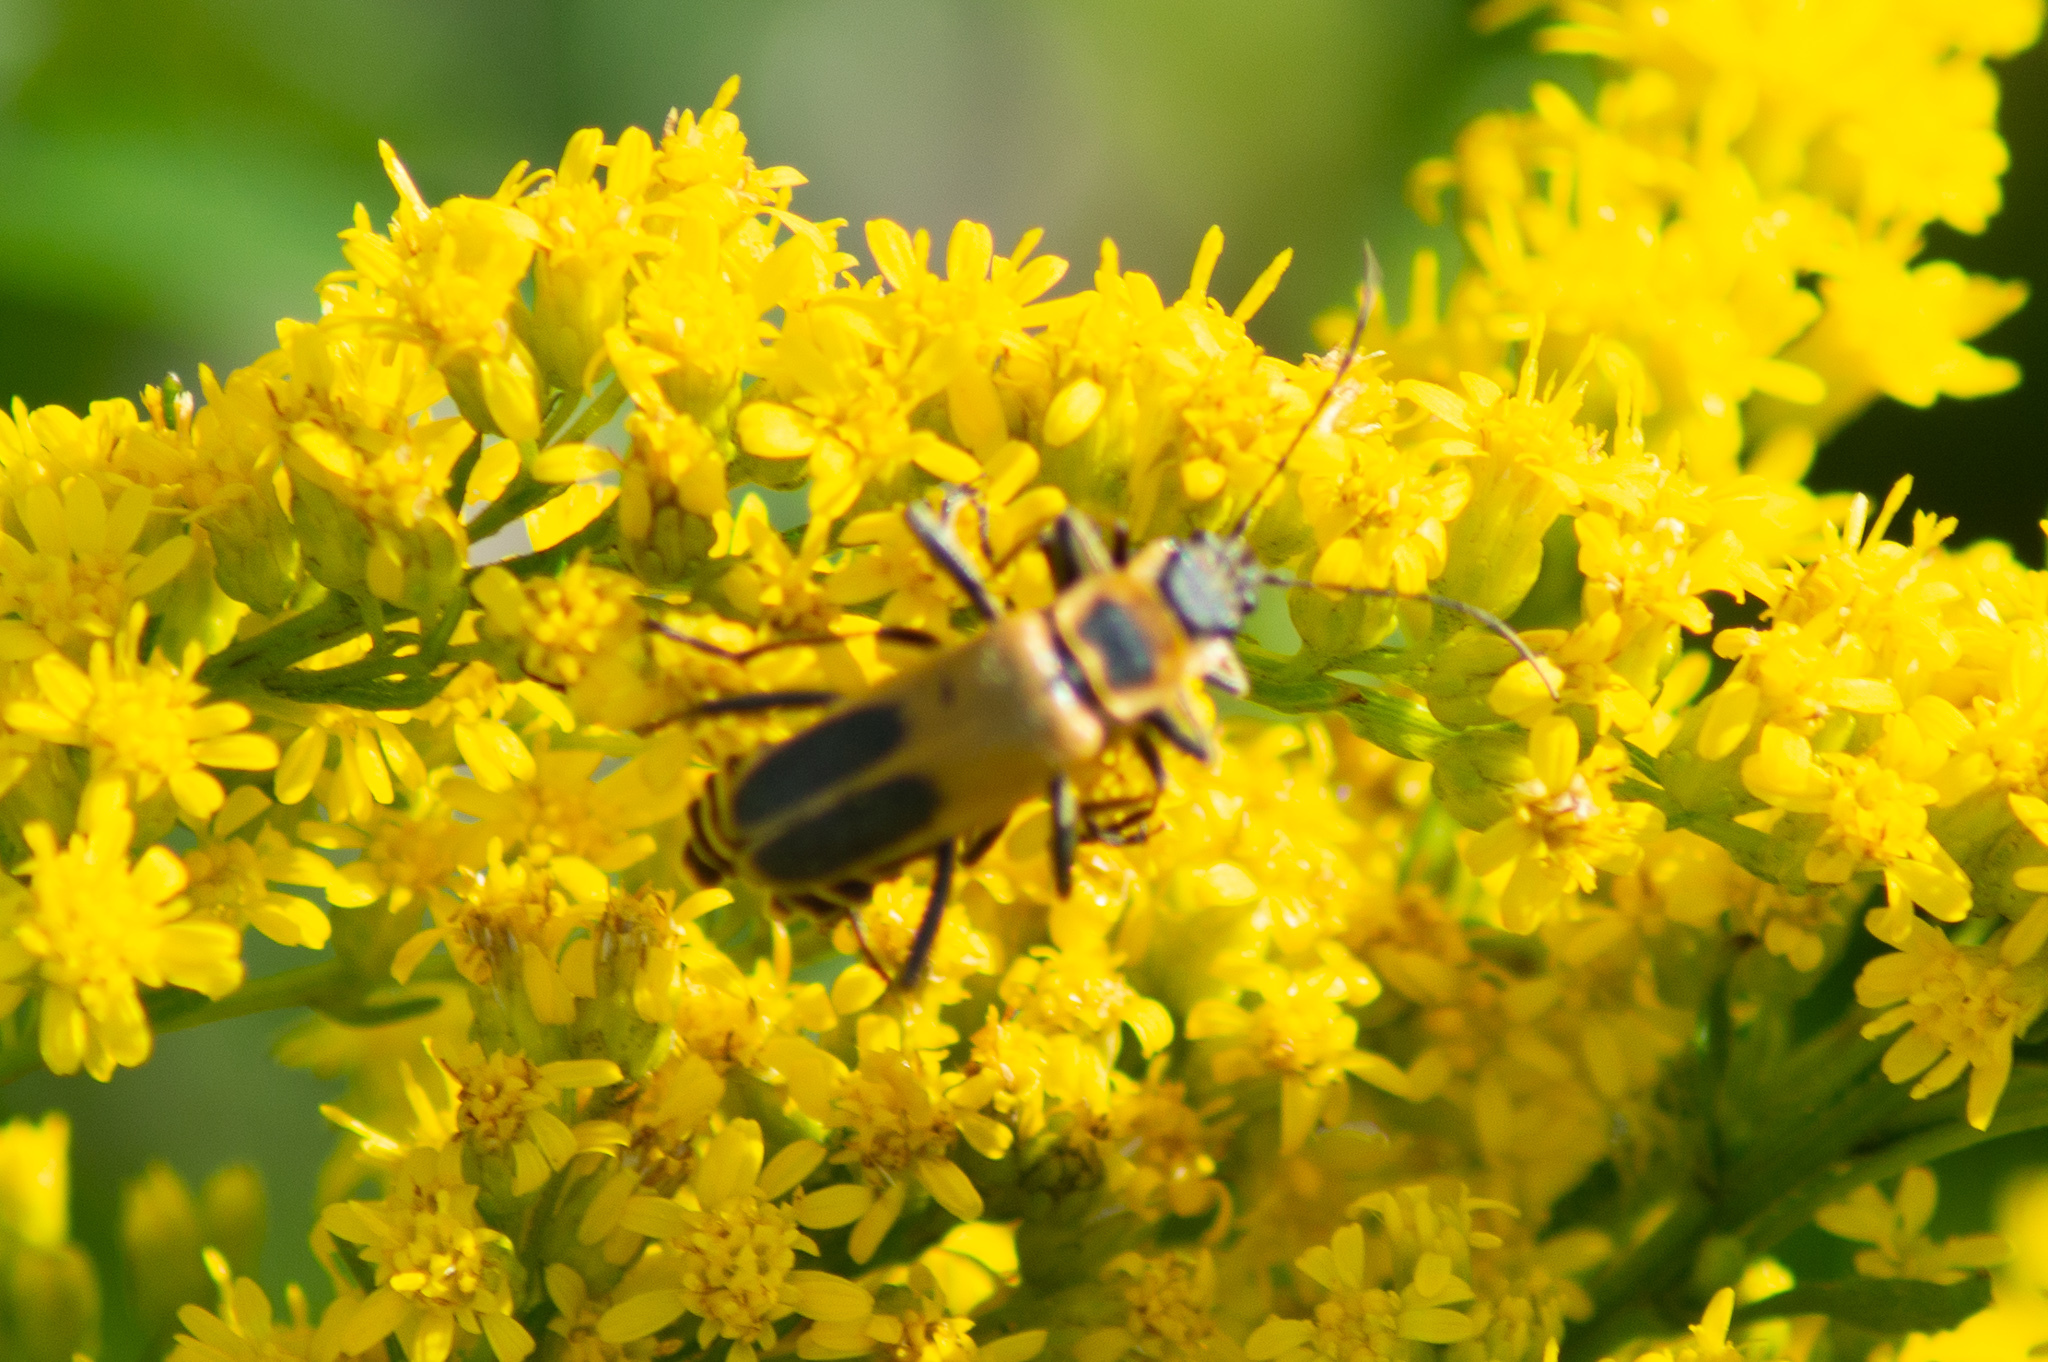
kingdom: Animalia
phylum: Arthropoda
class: Insecta
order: Coleoptera
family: Cantharidae
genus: Chauliognathus
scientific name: Chauliognathus pensylvanicus
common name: Goldenrod soldier beetle
